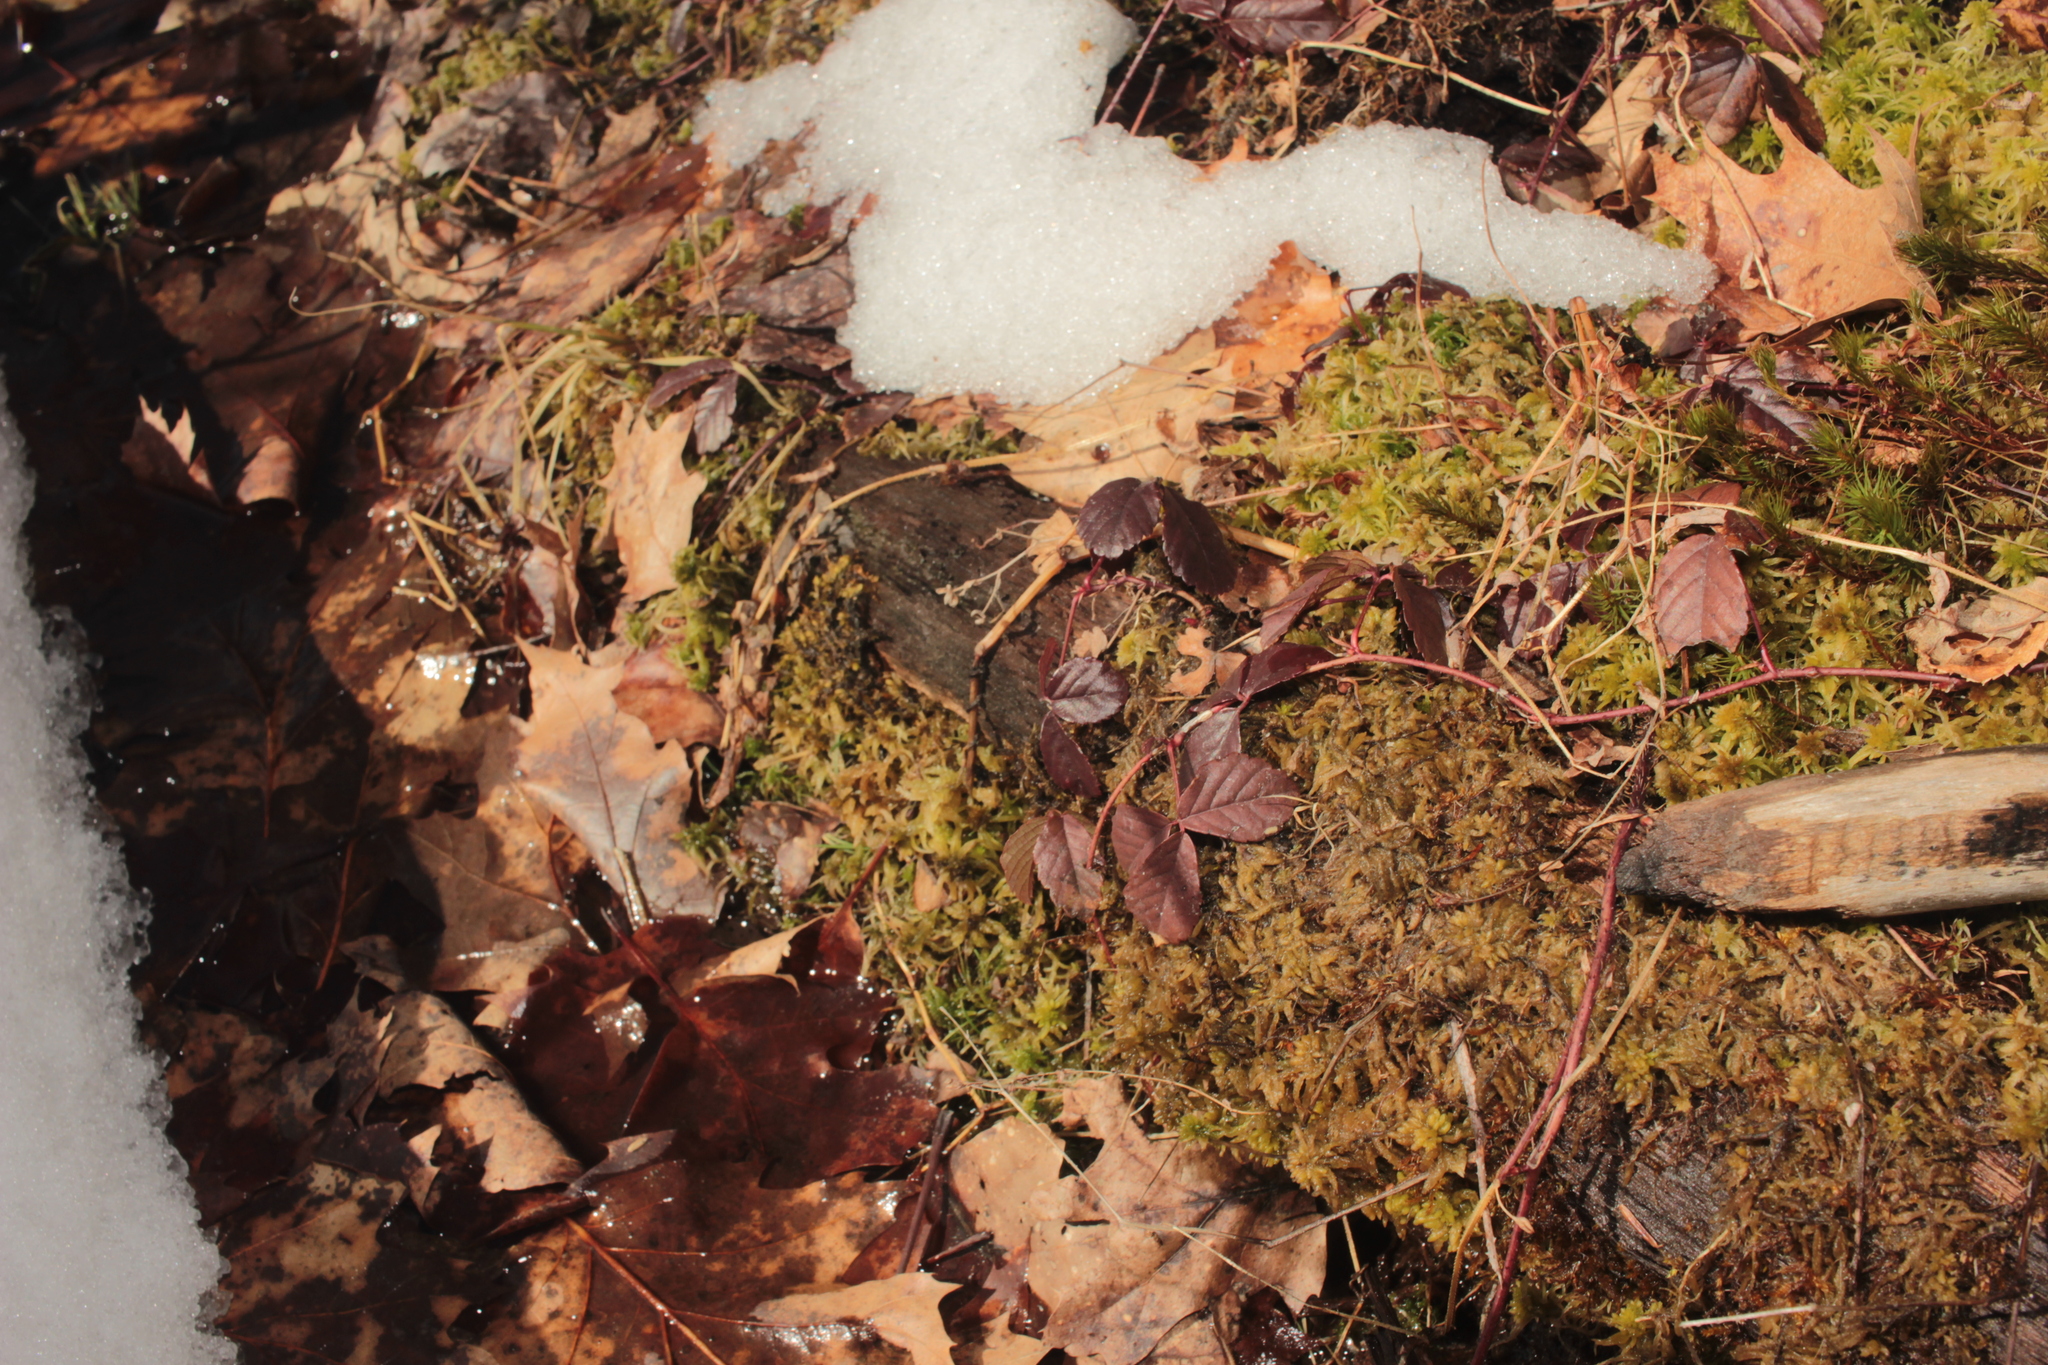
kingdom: Plantae
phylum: Tracheophyta
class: Magnoliopsida
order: Rosales
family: Rosaceae
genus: Rubus
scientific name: Rubus hispidus
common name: Running blackberry
